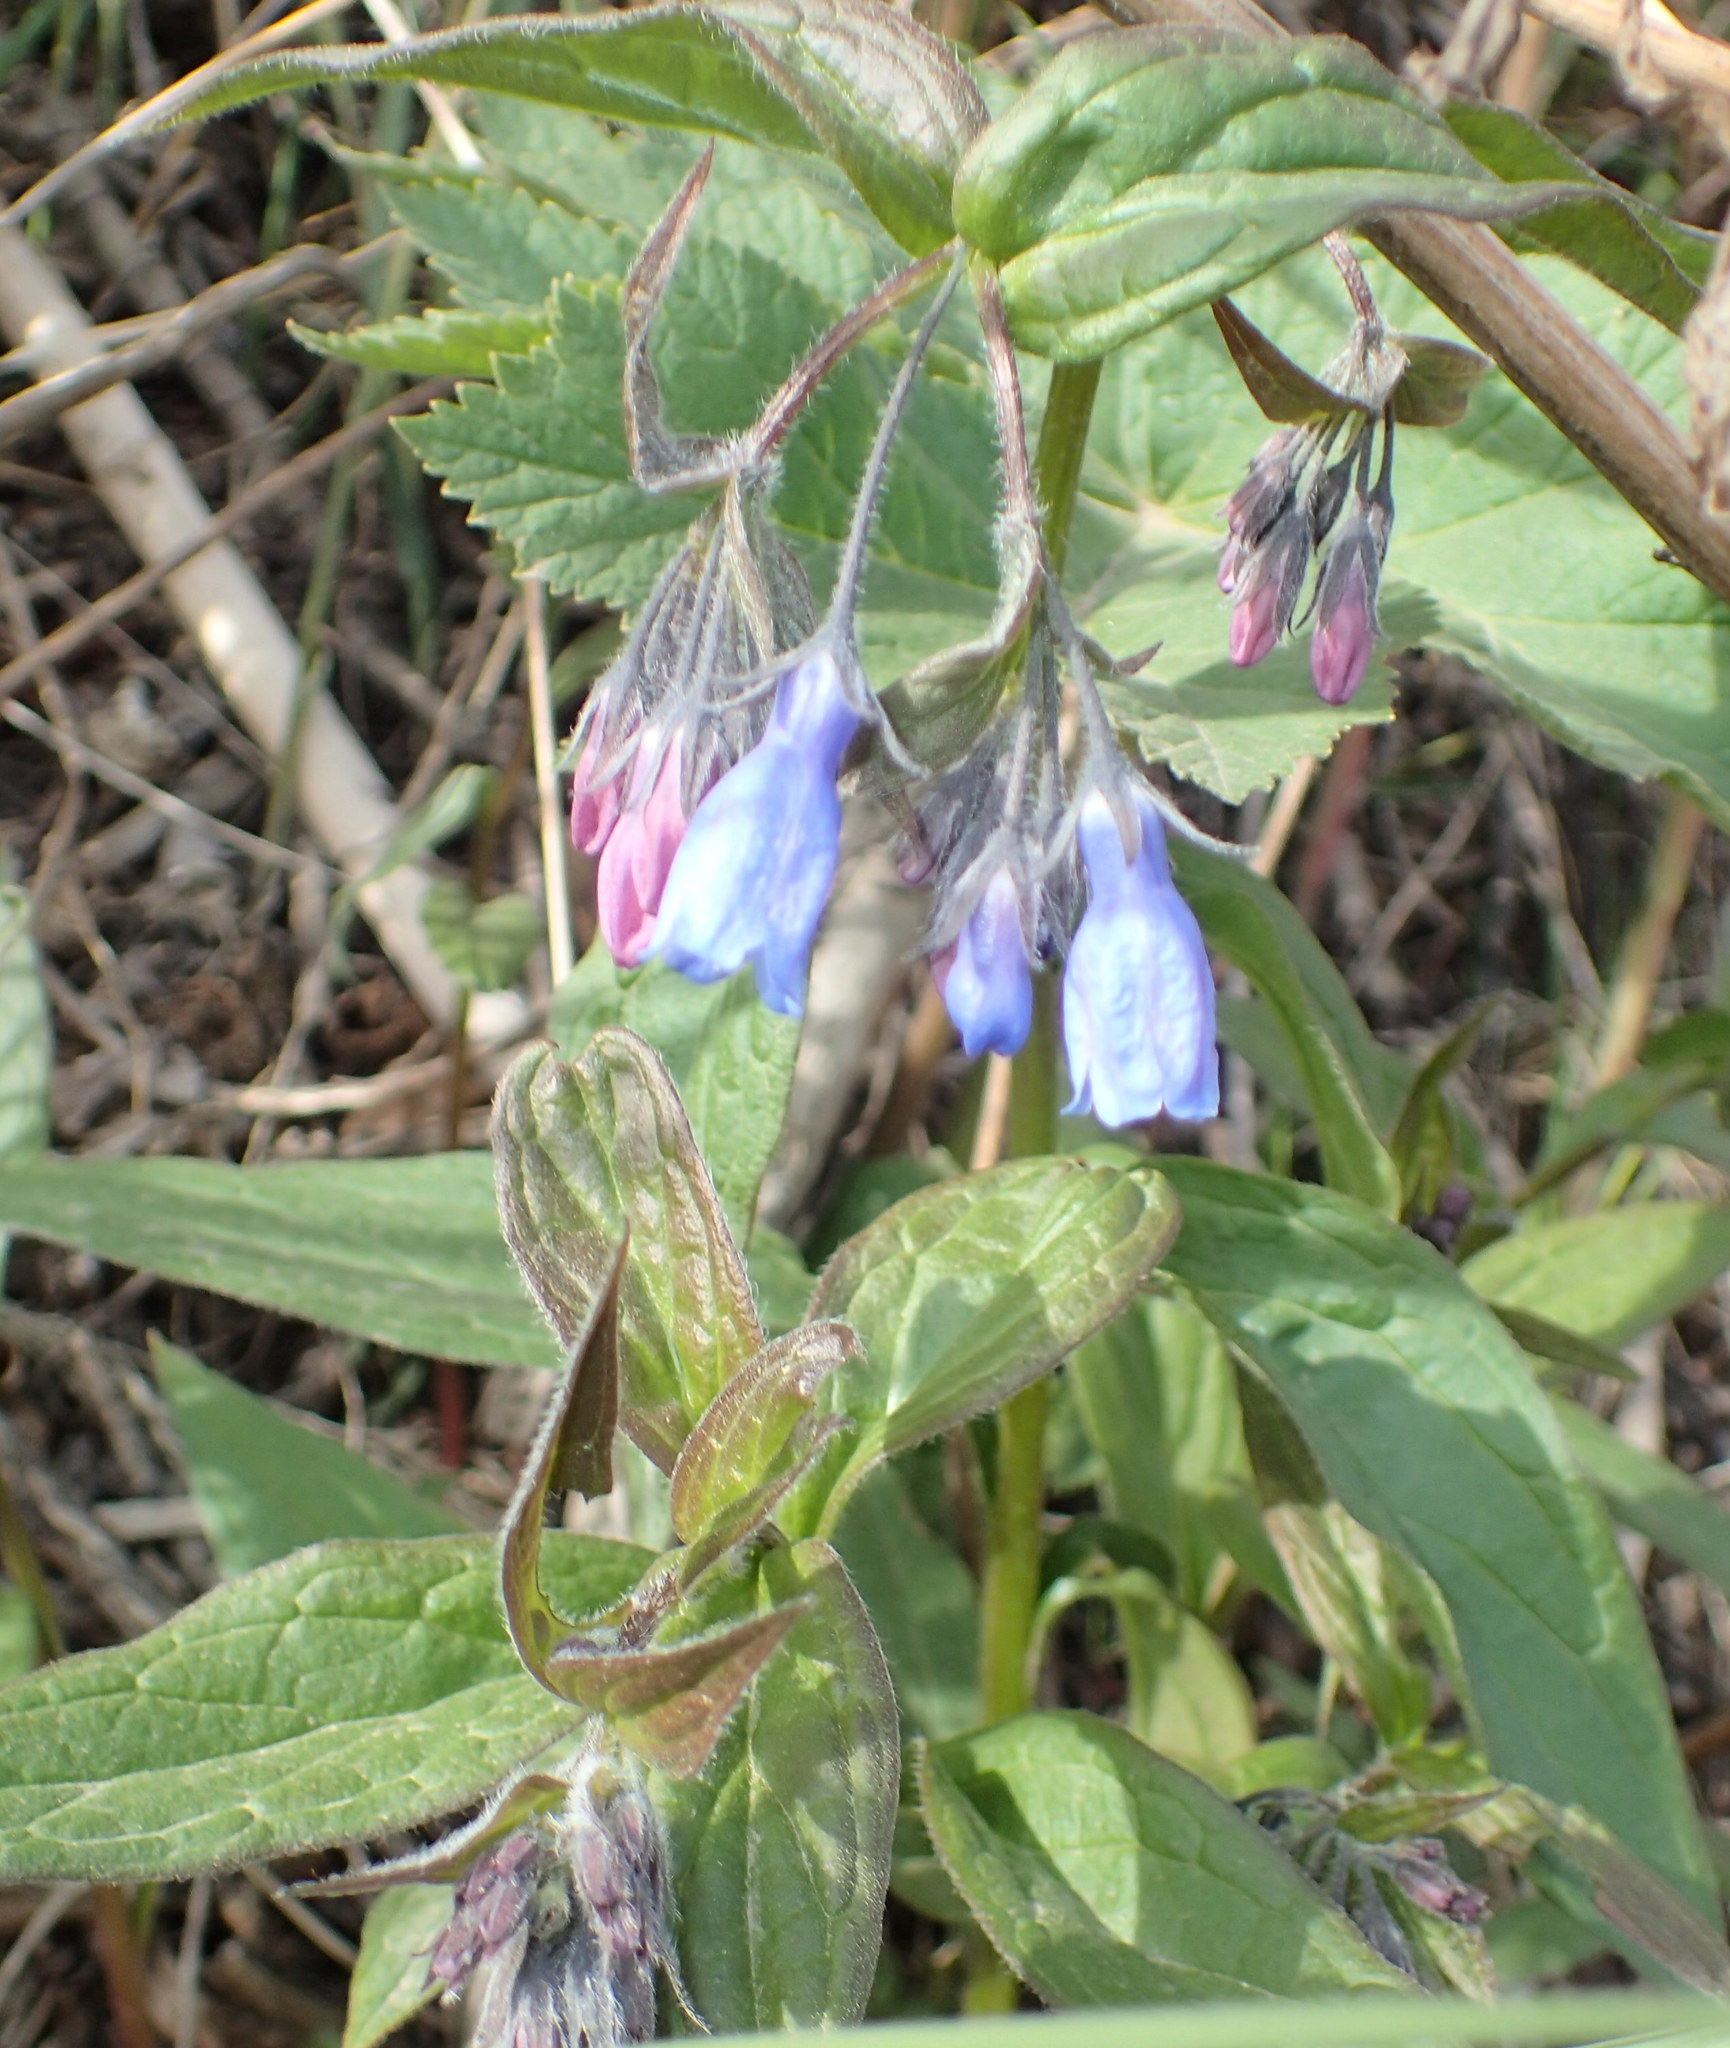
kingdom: Plantae
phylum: Tracheophyta
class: Magnoliopsida
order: Boraginales
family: Boraginaceae
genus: Mertensia
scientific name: Mertensia paniculata
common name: Panicled bluebells
